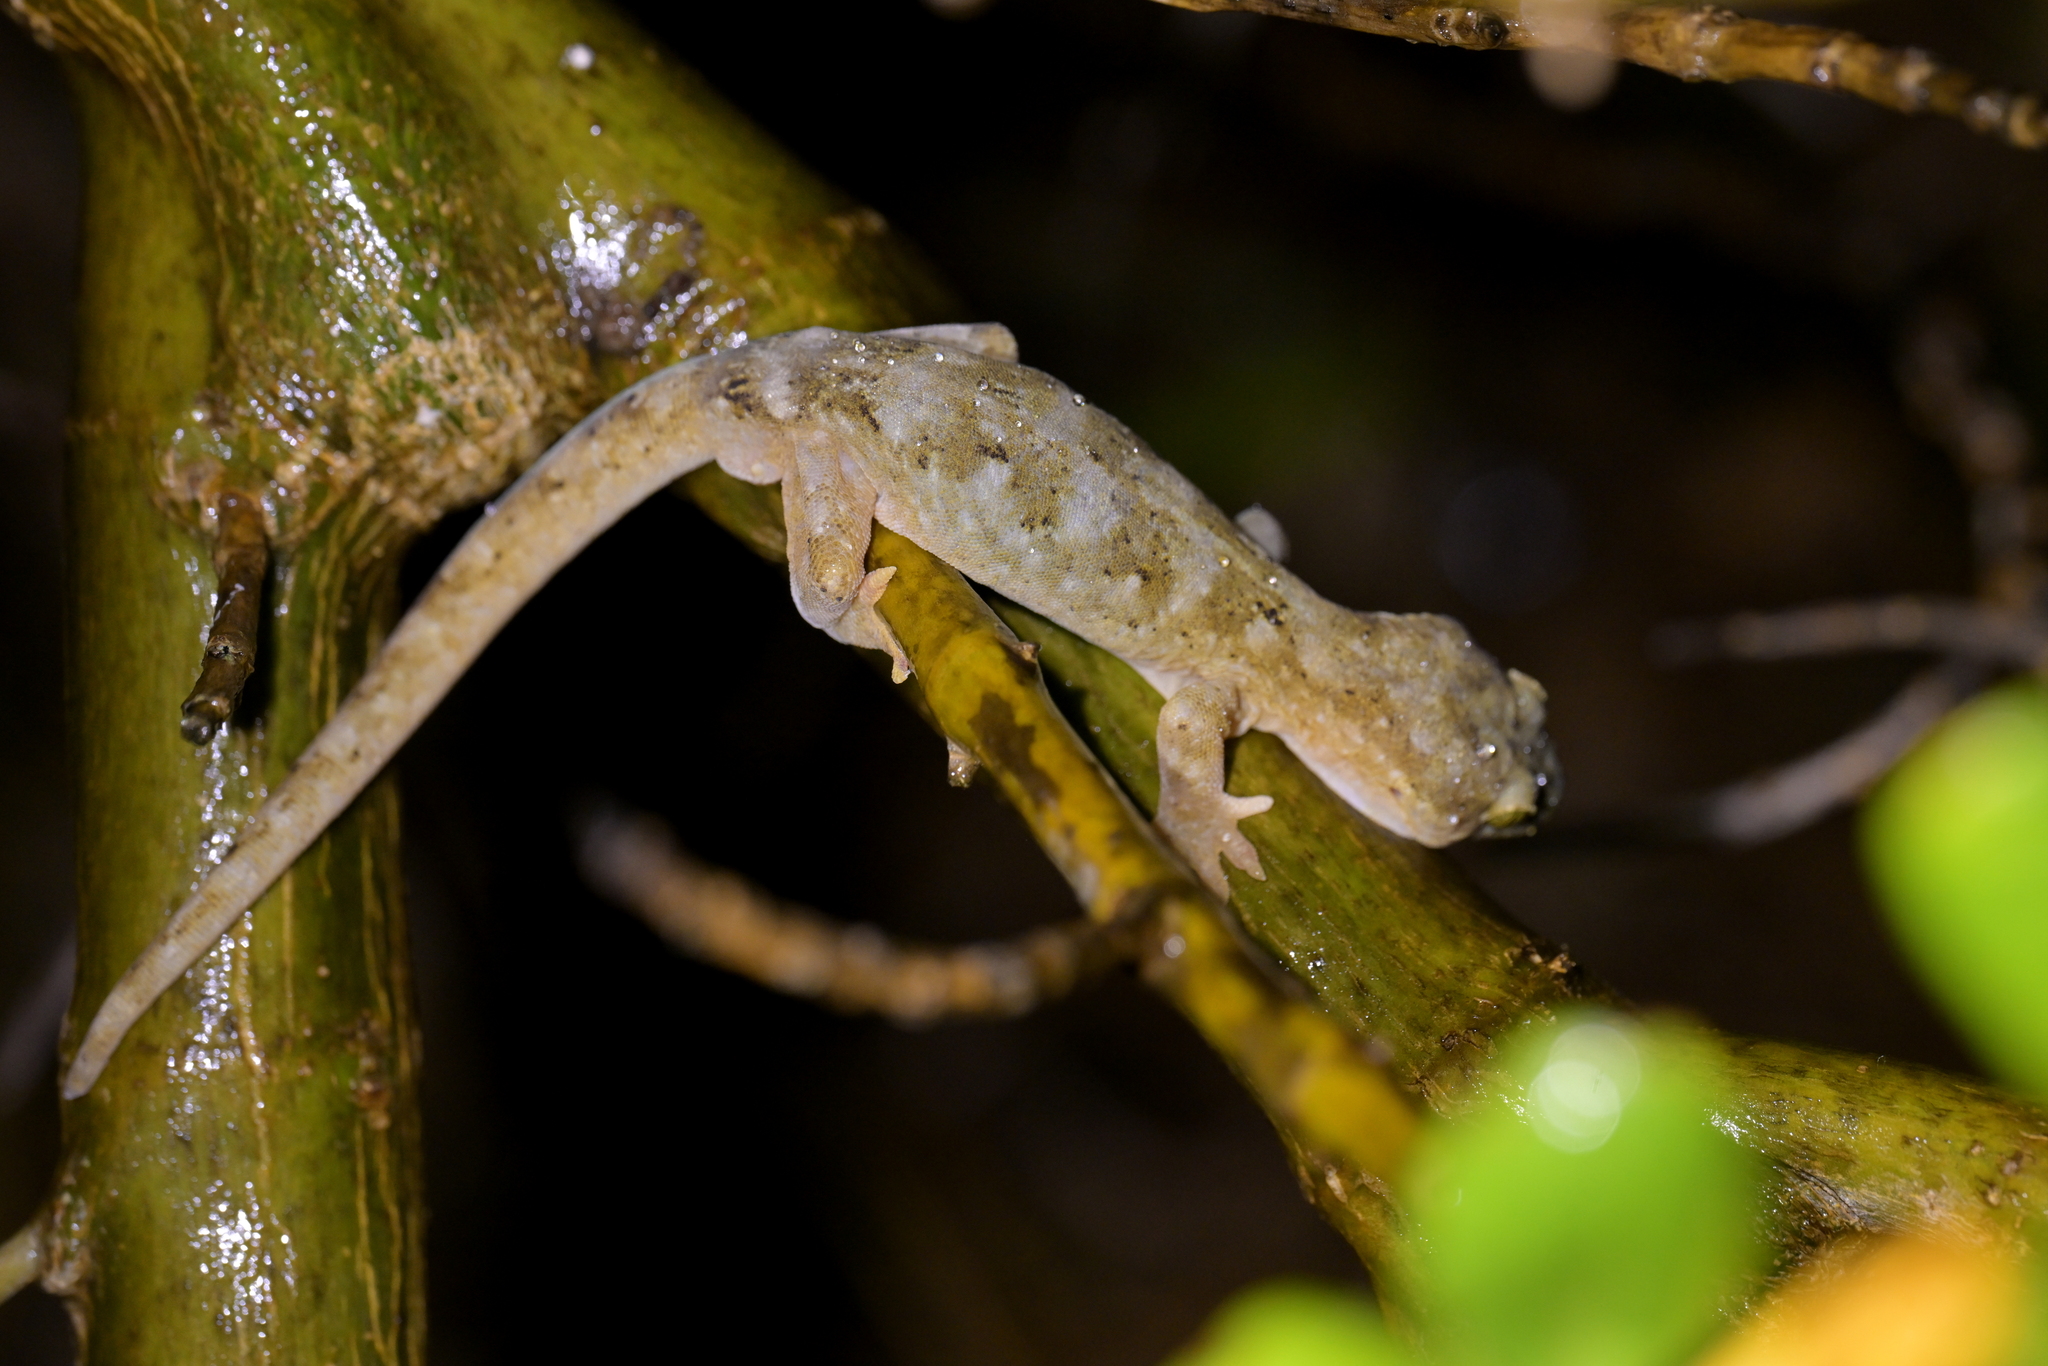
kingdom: Animalia
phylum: Chordata
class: Squamata
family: Diplodactylidae
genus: Woodworthia
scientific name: Woodworthia maculata
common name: Raukawa gecko
